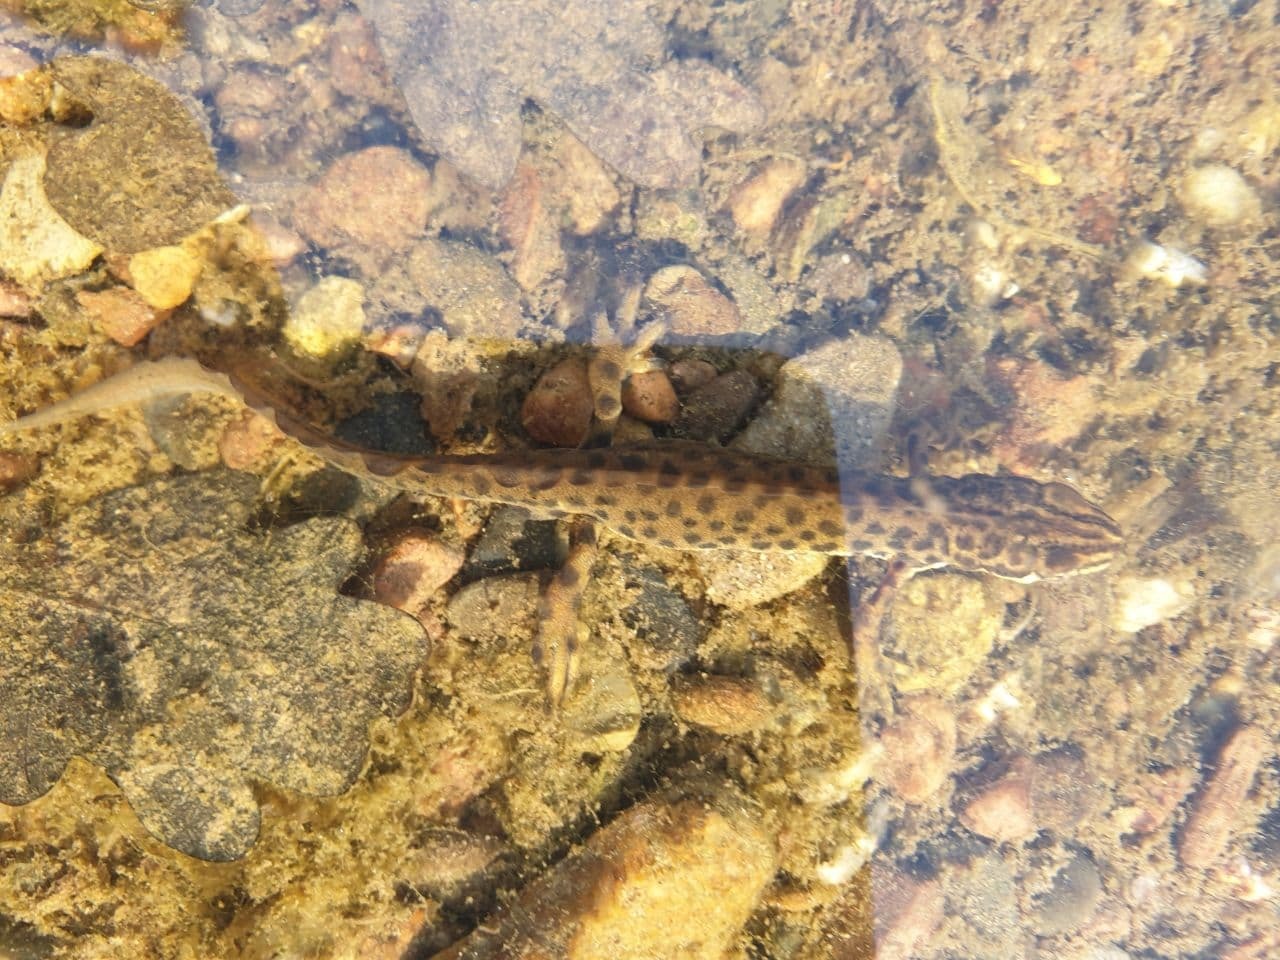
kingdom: Animalia
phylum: Chordata
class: Amphibia
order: Caudata
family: Salamandridae
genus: Lissotriton
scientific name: Lissotriton vulgaris
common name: Smooth newt
